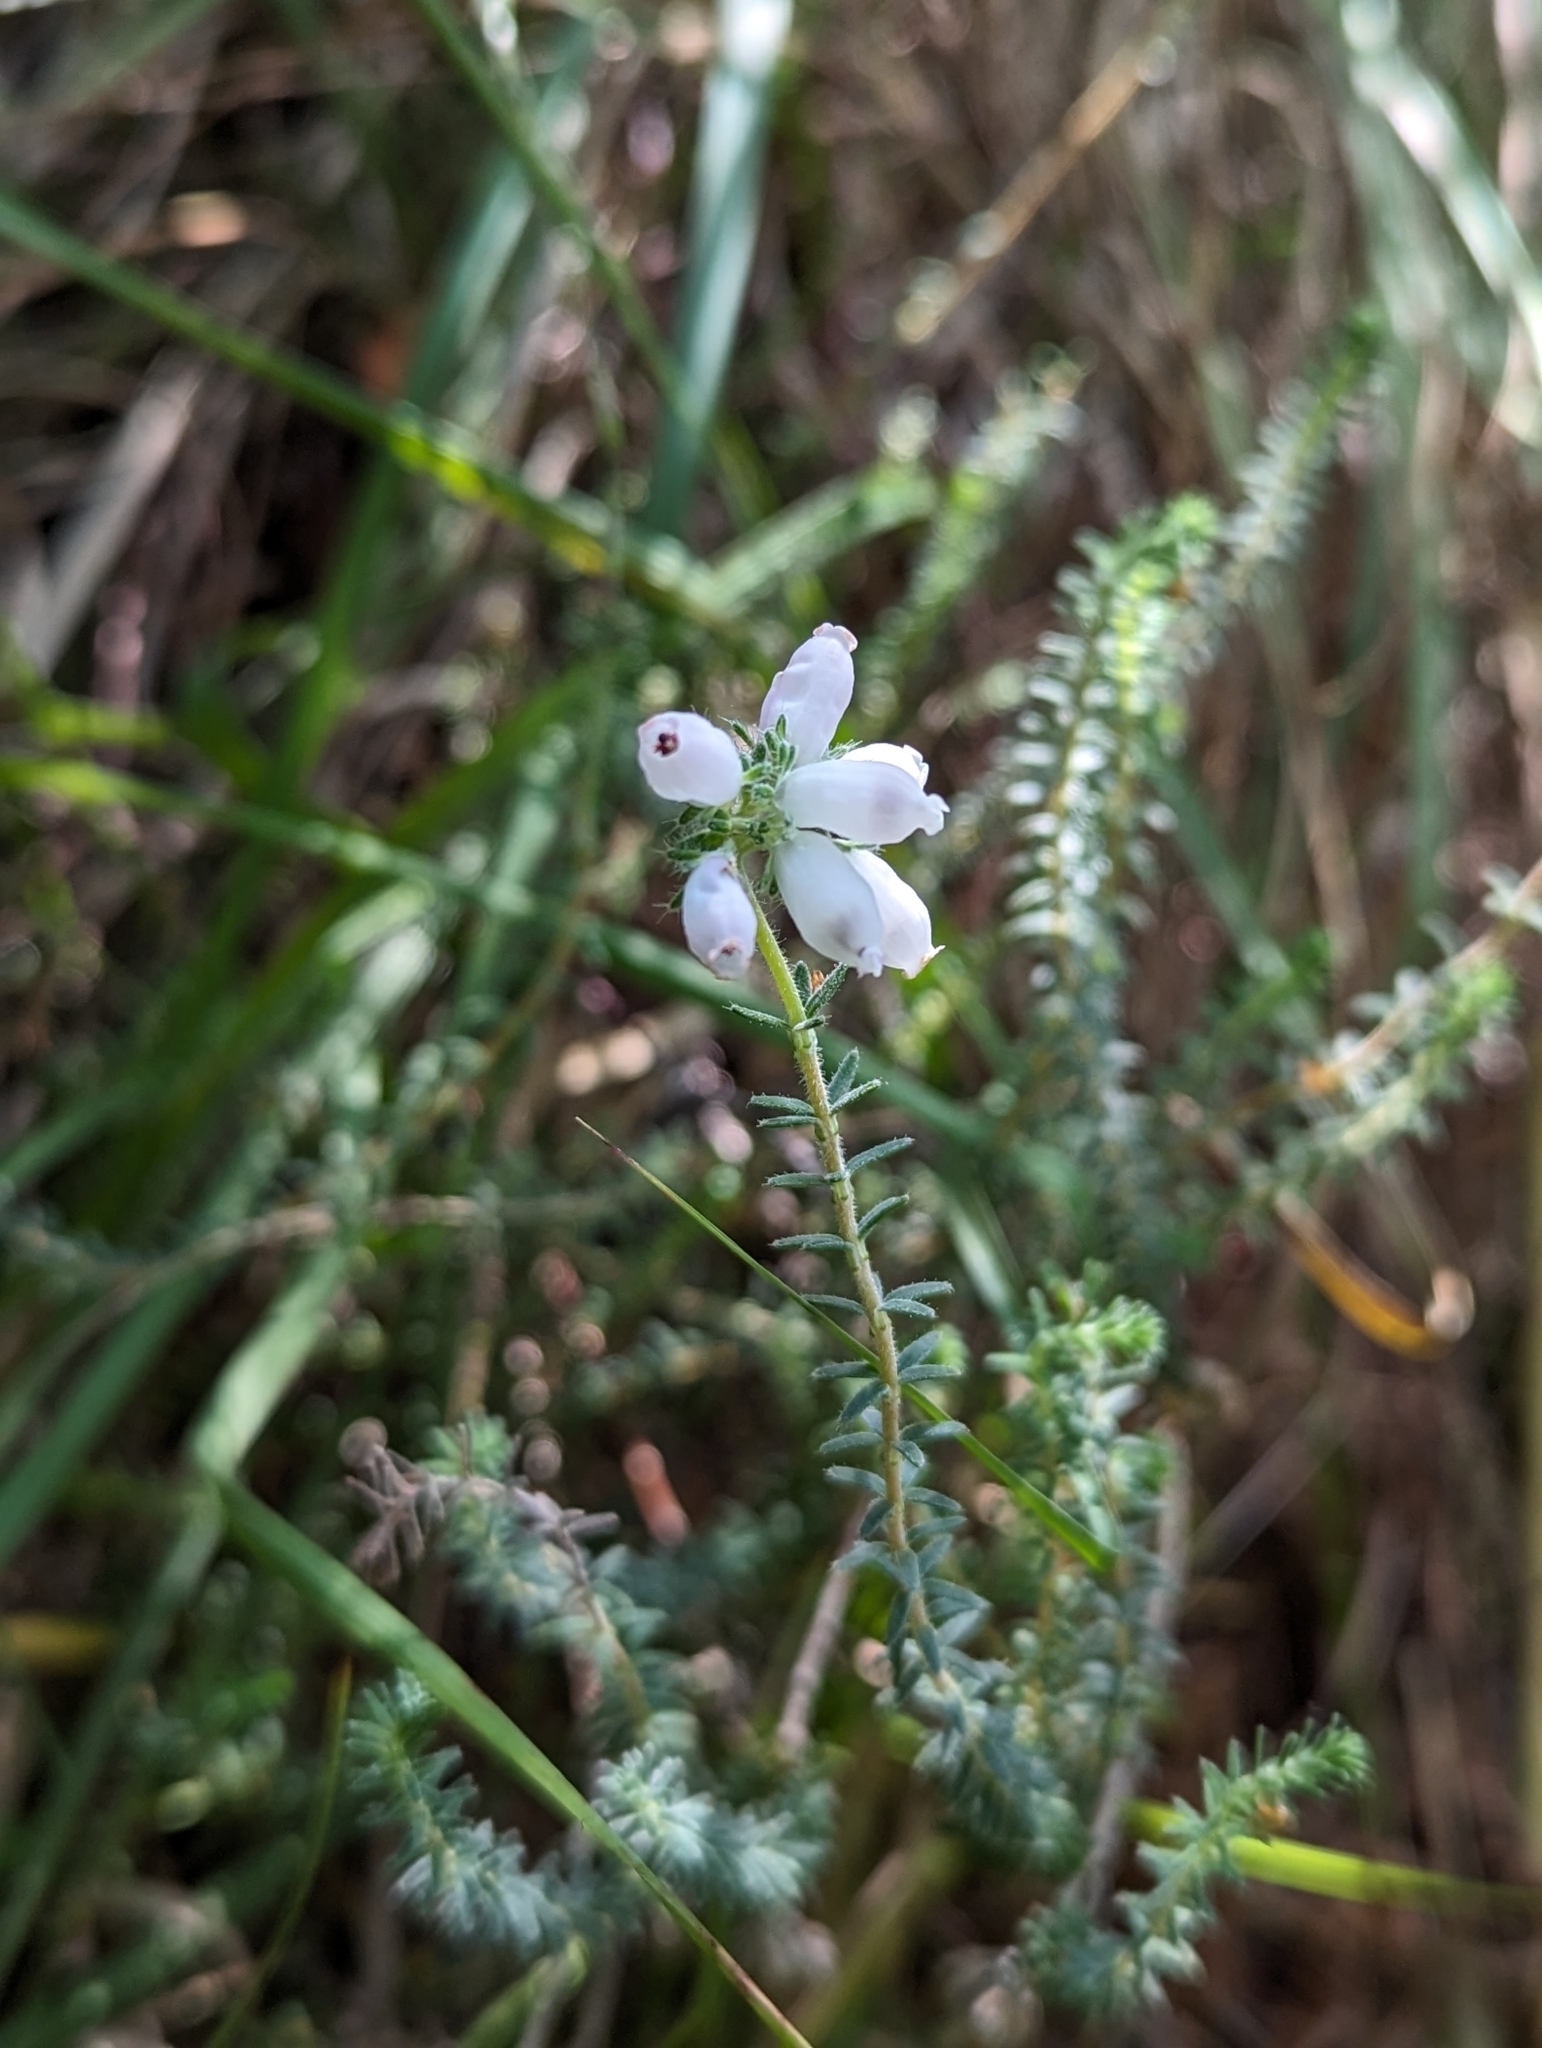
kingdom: Plantae
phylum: Tracheophyta
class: Magnoliopsida
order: Ericales
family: Ericaceae
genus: Erica
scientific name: Erica tetralix
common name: Cross-leaved heath
